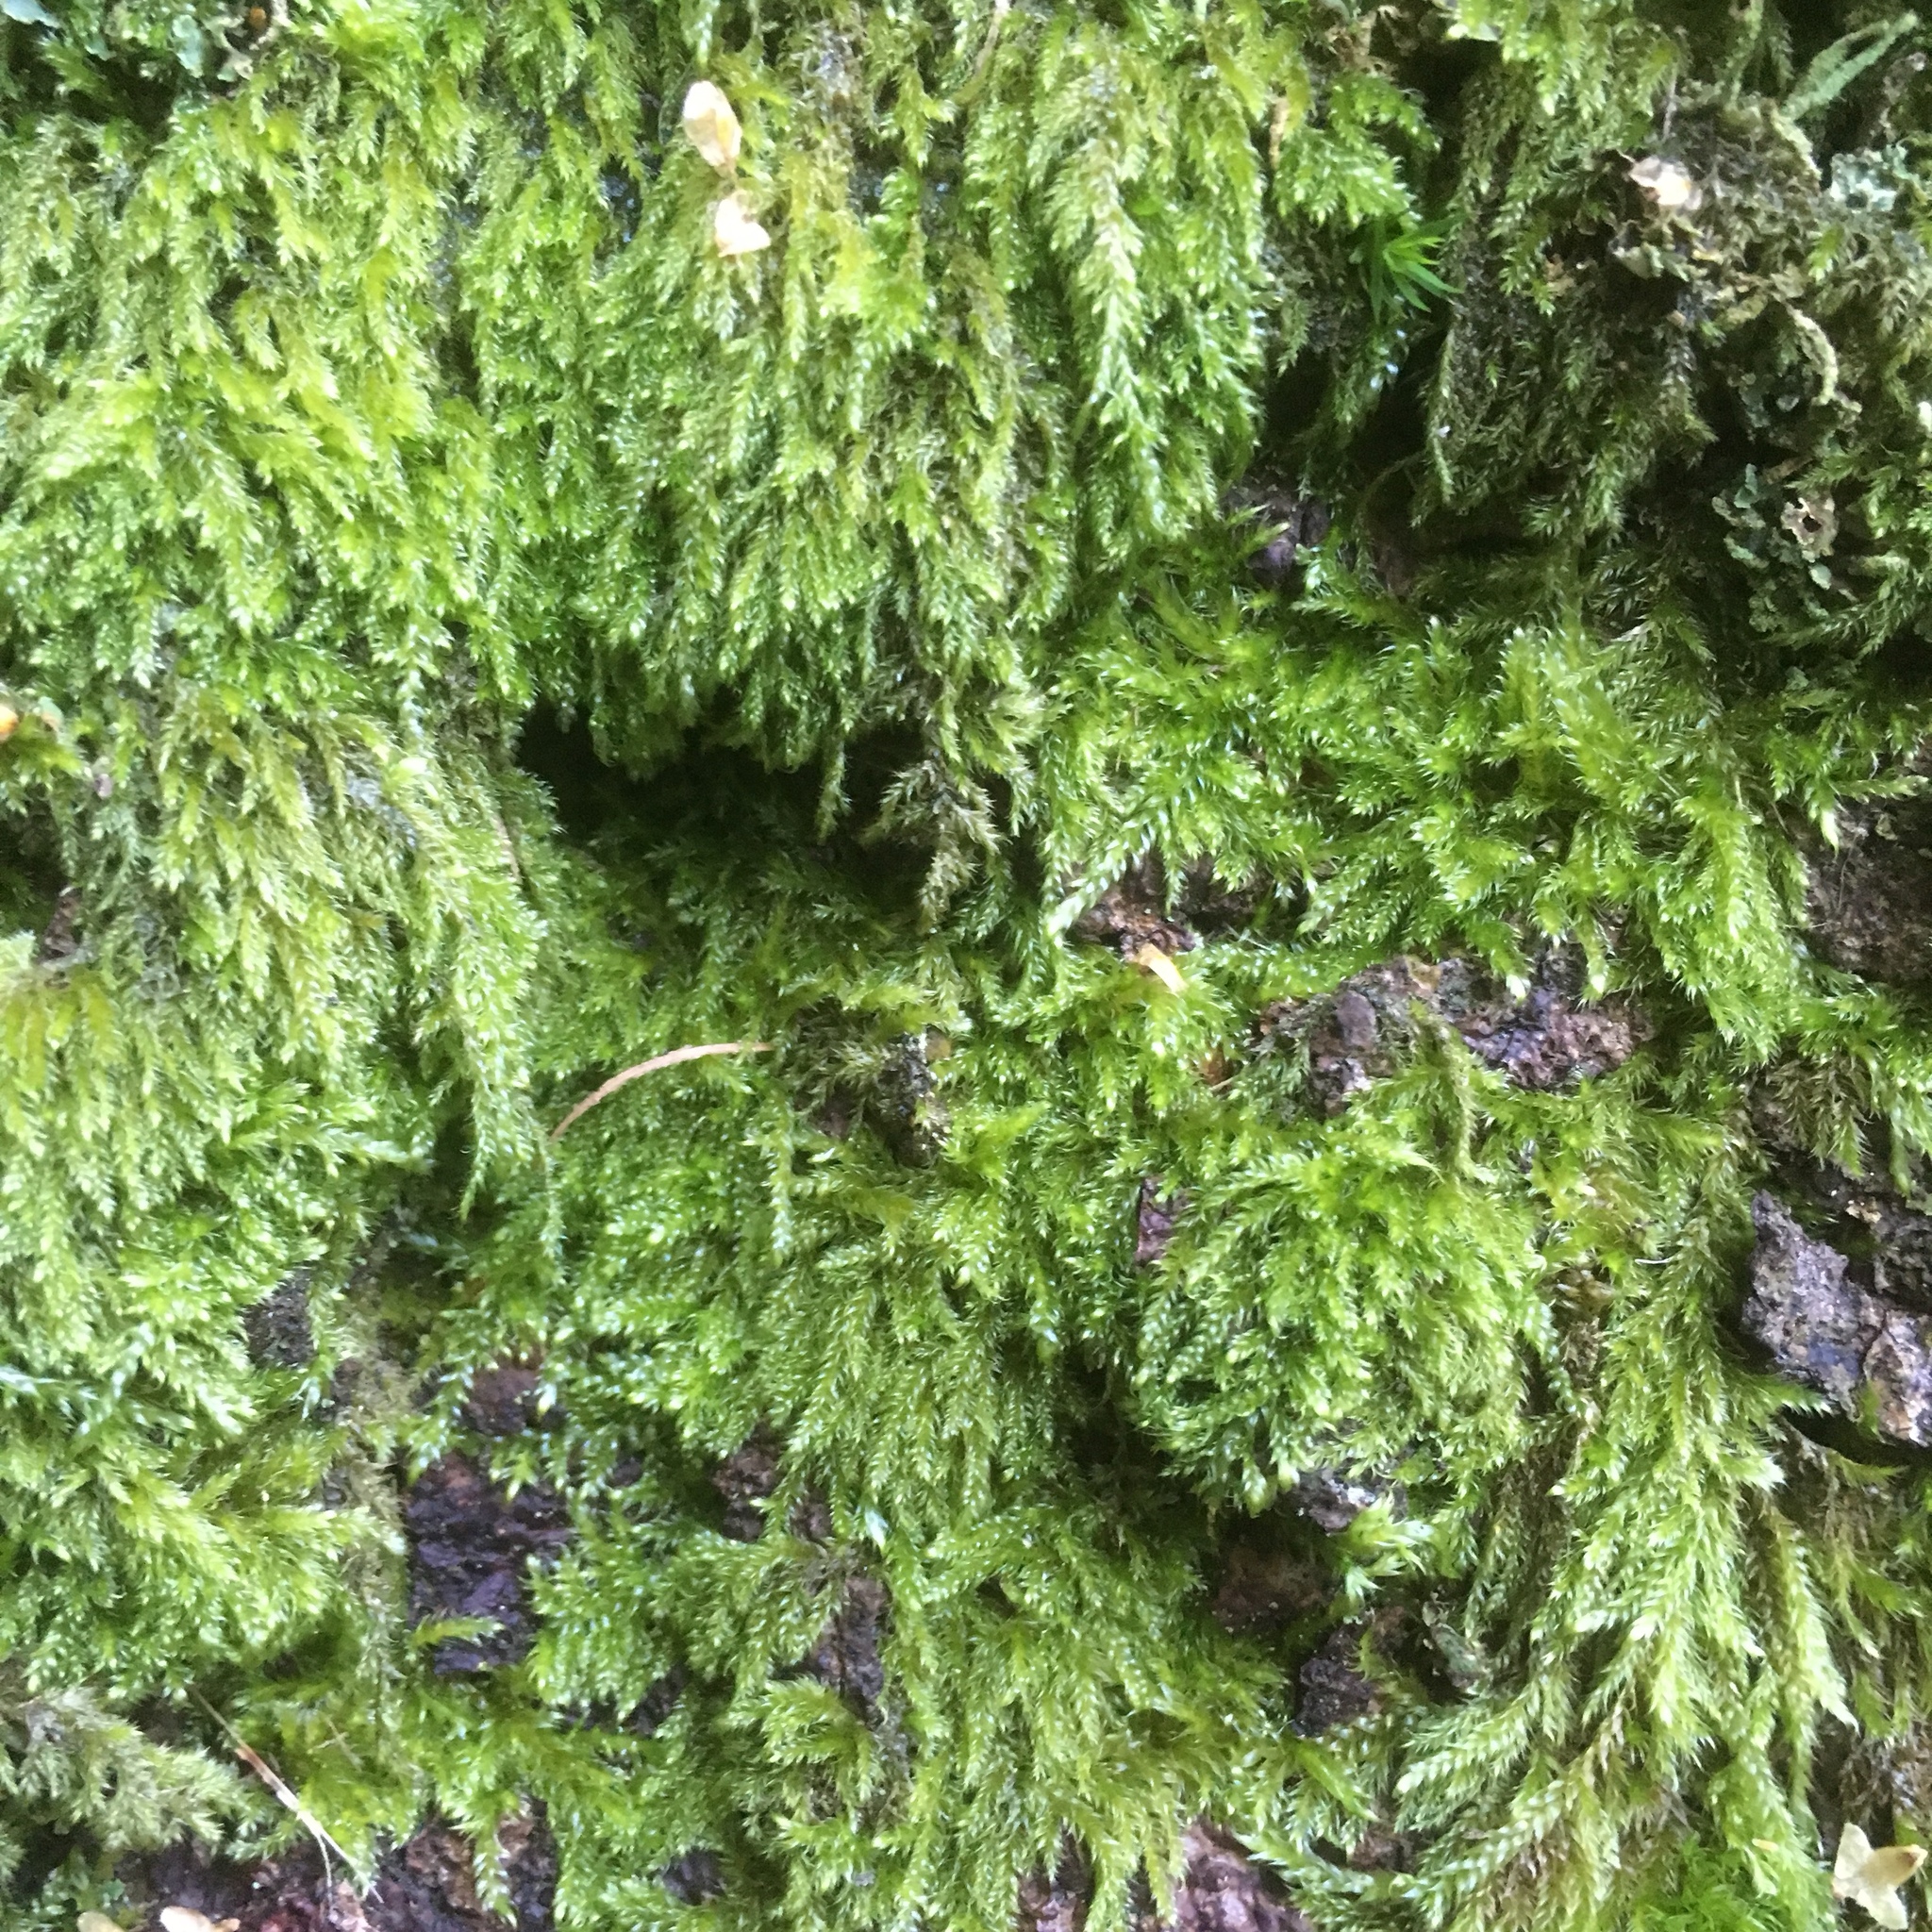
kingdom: Plantae
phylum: Bryophyta
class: Bryopsida
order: Hypnales
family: Hypnaceae
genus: Hypnum
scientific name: Hypnum cupressiforme
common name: Cypress-leaved plait-moss
